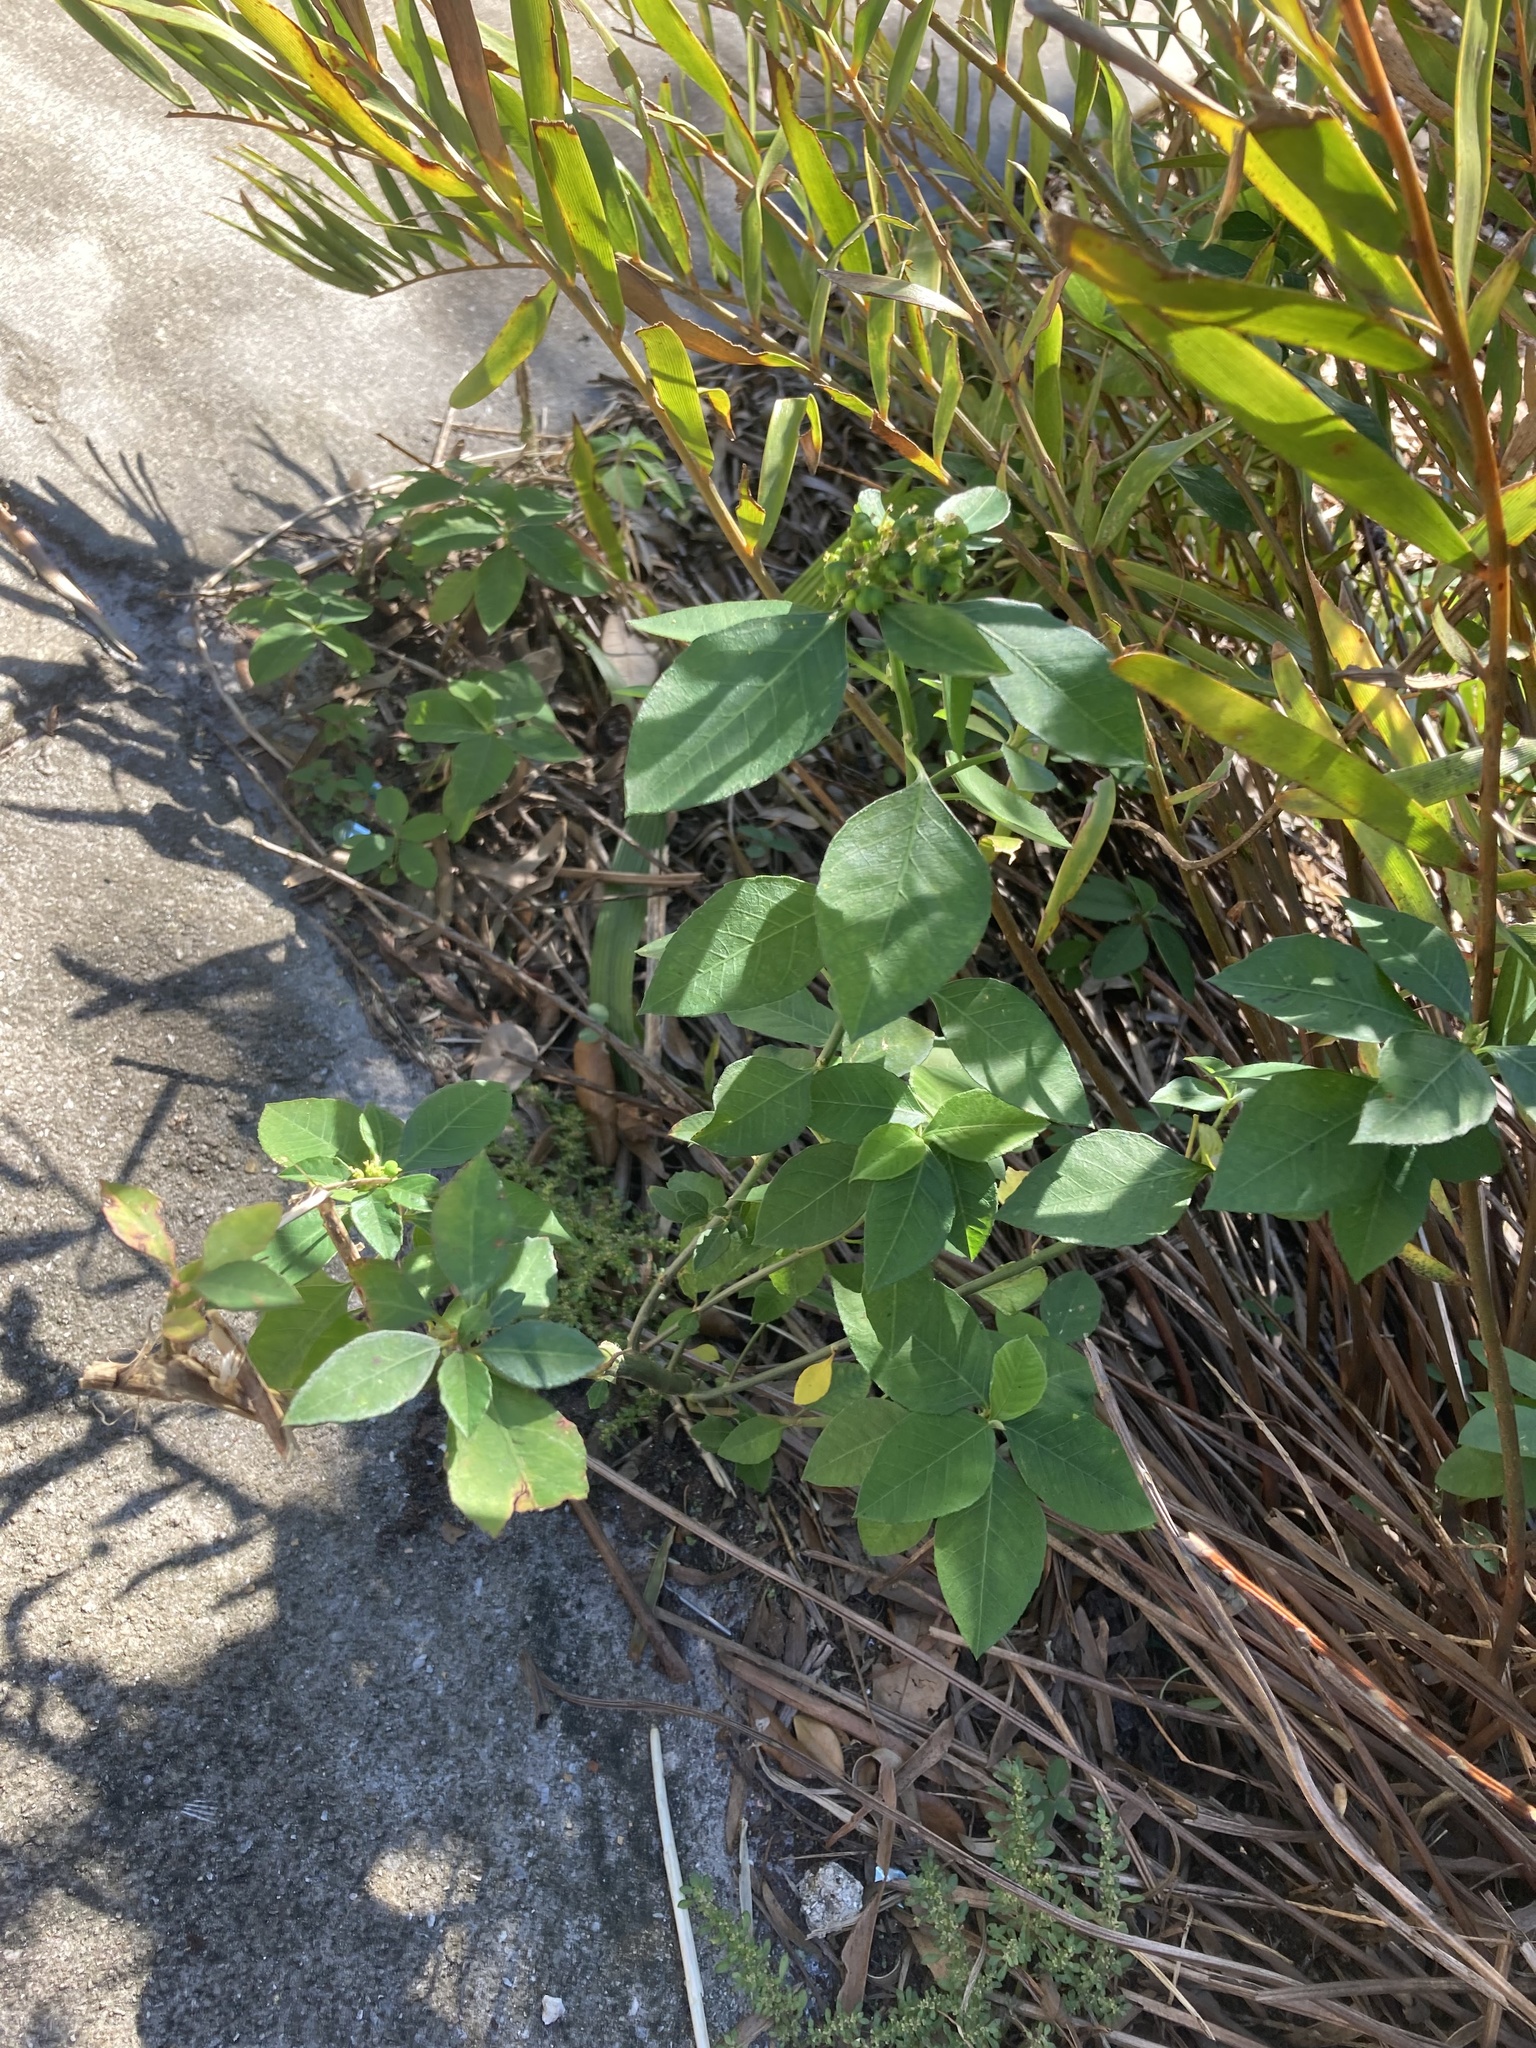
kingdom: Plantae
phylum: Tracheophyta
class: Magnoliopsida
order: Malpighiales
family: Euphorbiaceae
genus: Euphorbia
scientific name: Euphorbia heterophylla
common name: Mexican fireplant
